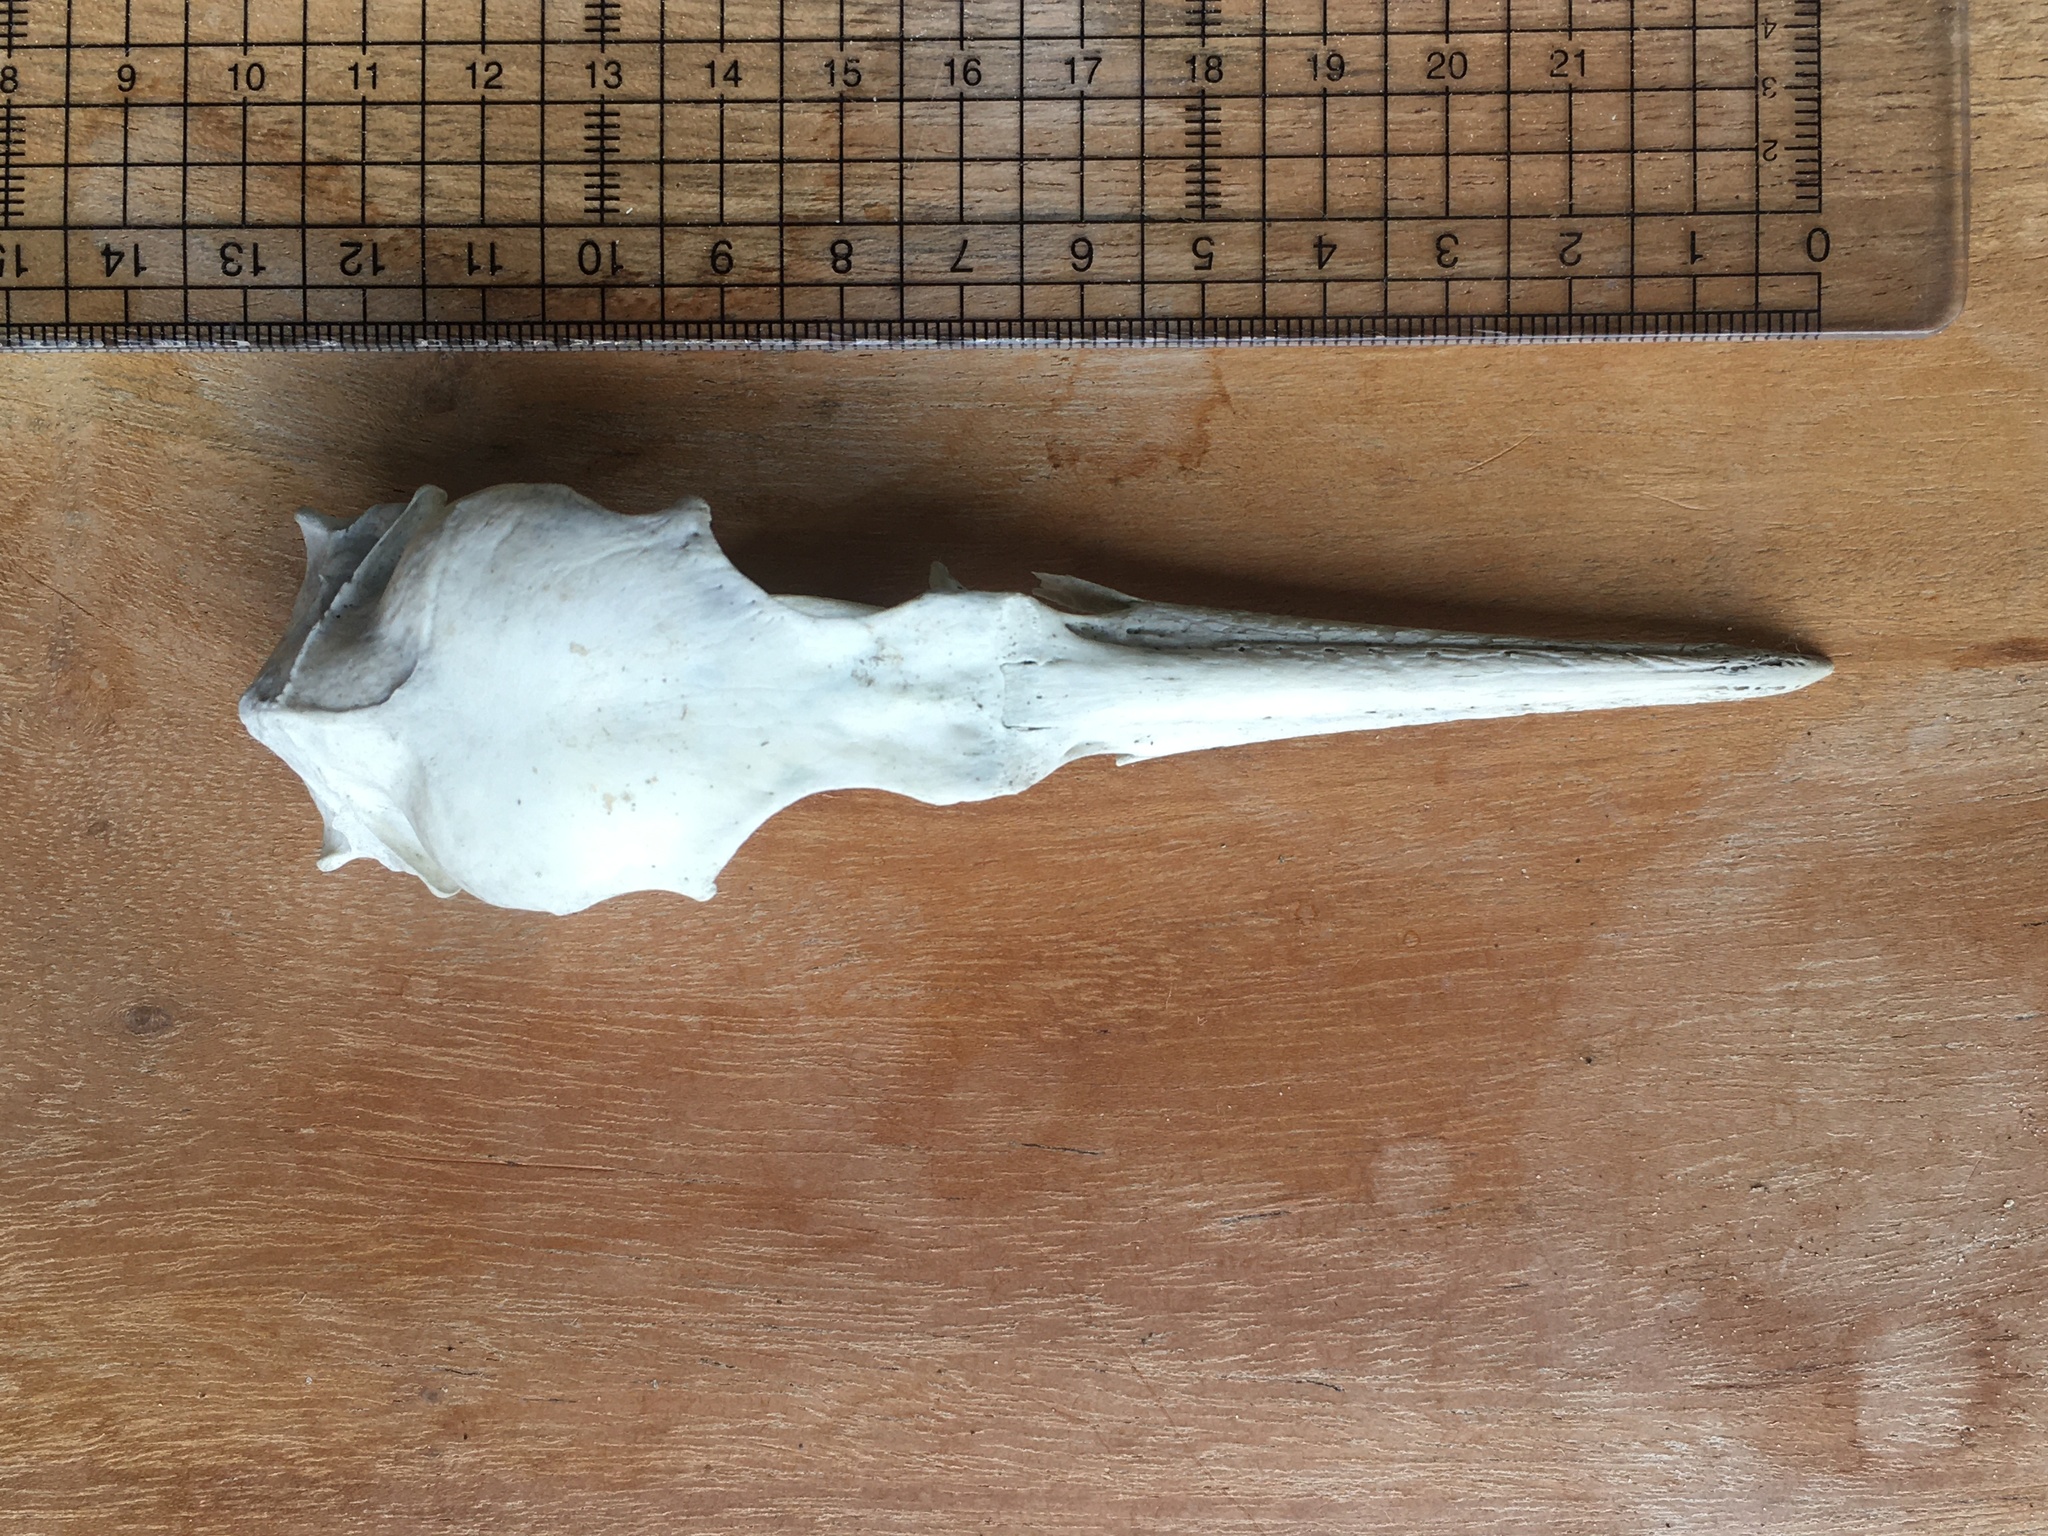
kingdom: Animalia
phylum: Chordata
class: Aves
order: Suliformes
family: Phalacrocoracidae
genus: Phalacrocorax
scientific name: Phalacrocorax aristotelis
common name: European shag
